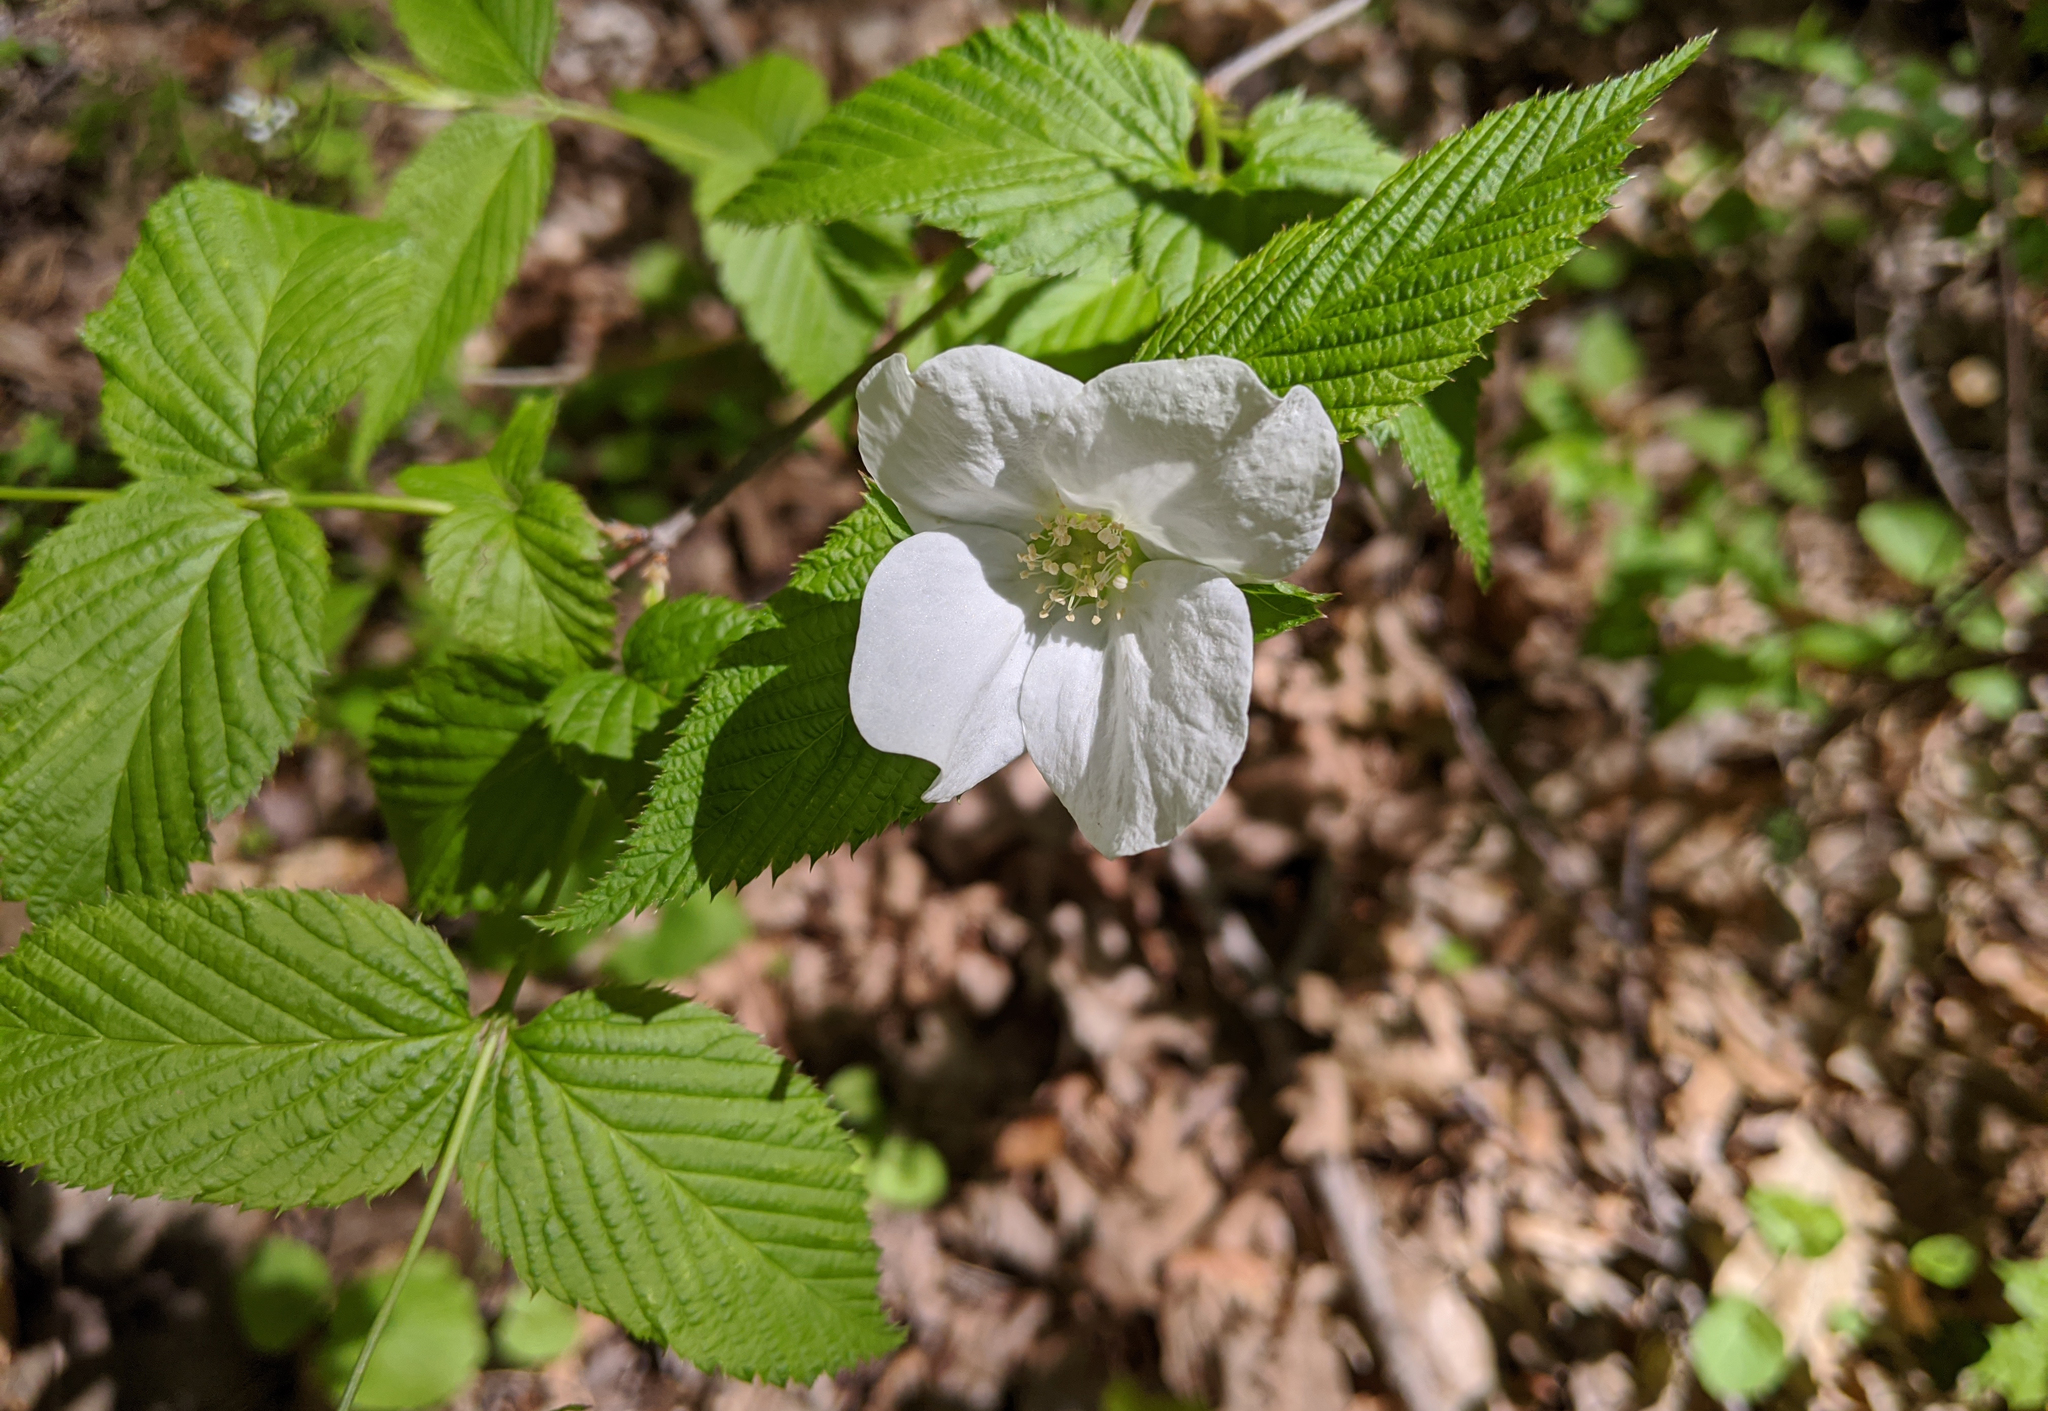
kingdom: Plantae
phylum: Tracheophyta
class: Magnoliopsida
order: Rosales
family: Rosaceae
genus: Rhodotypos
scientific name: Rhodotypos scandens
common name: Jetbead
